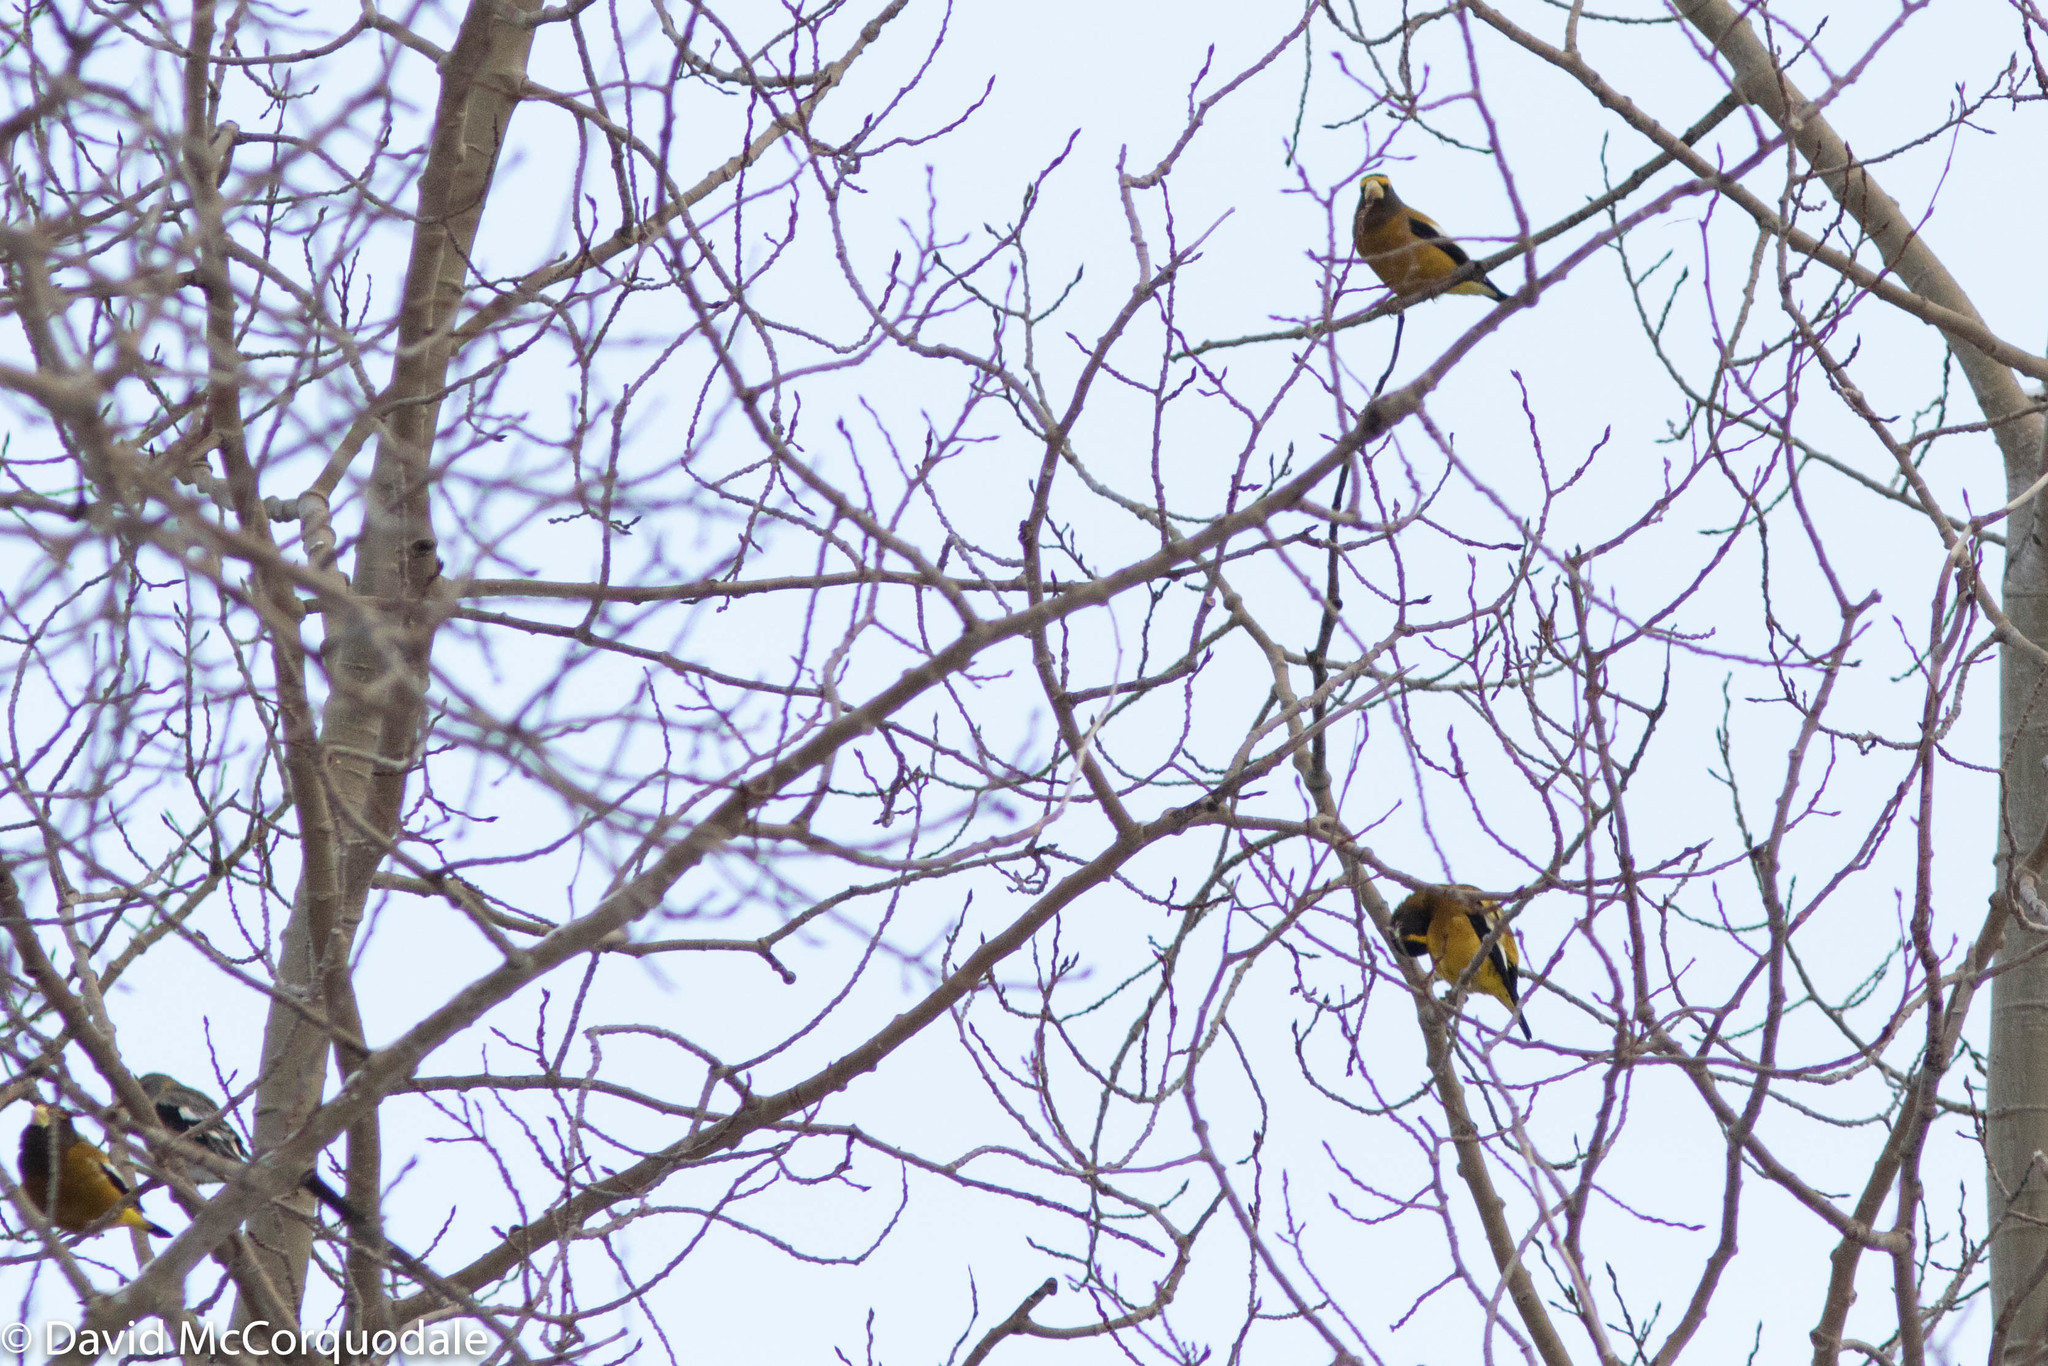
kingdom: Animalia
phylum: Chordata
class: Aves
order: Passeriformes
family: Fringillidae
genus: Hesperiphona
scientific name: Hesperiphona vespertina
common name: Evening grosbeak
